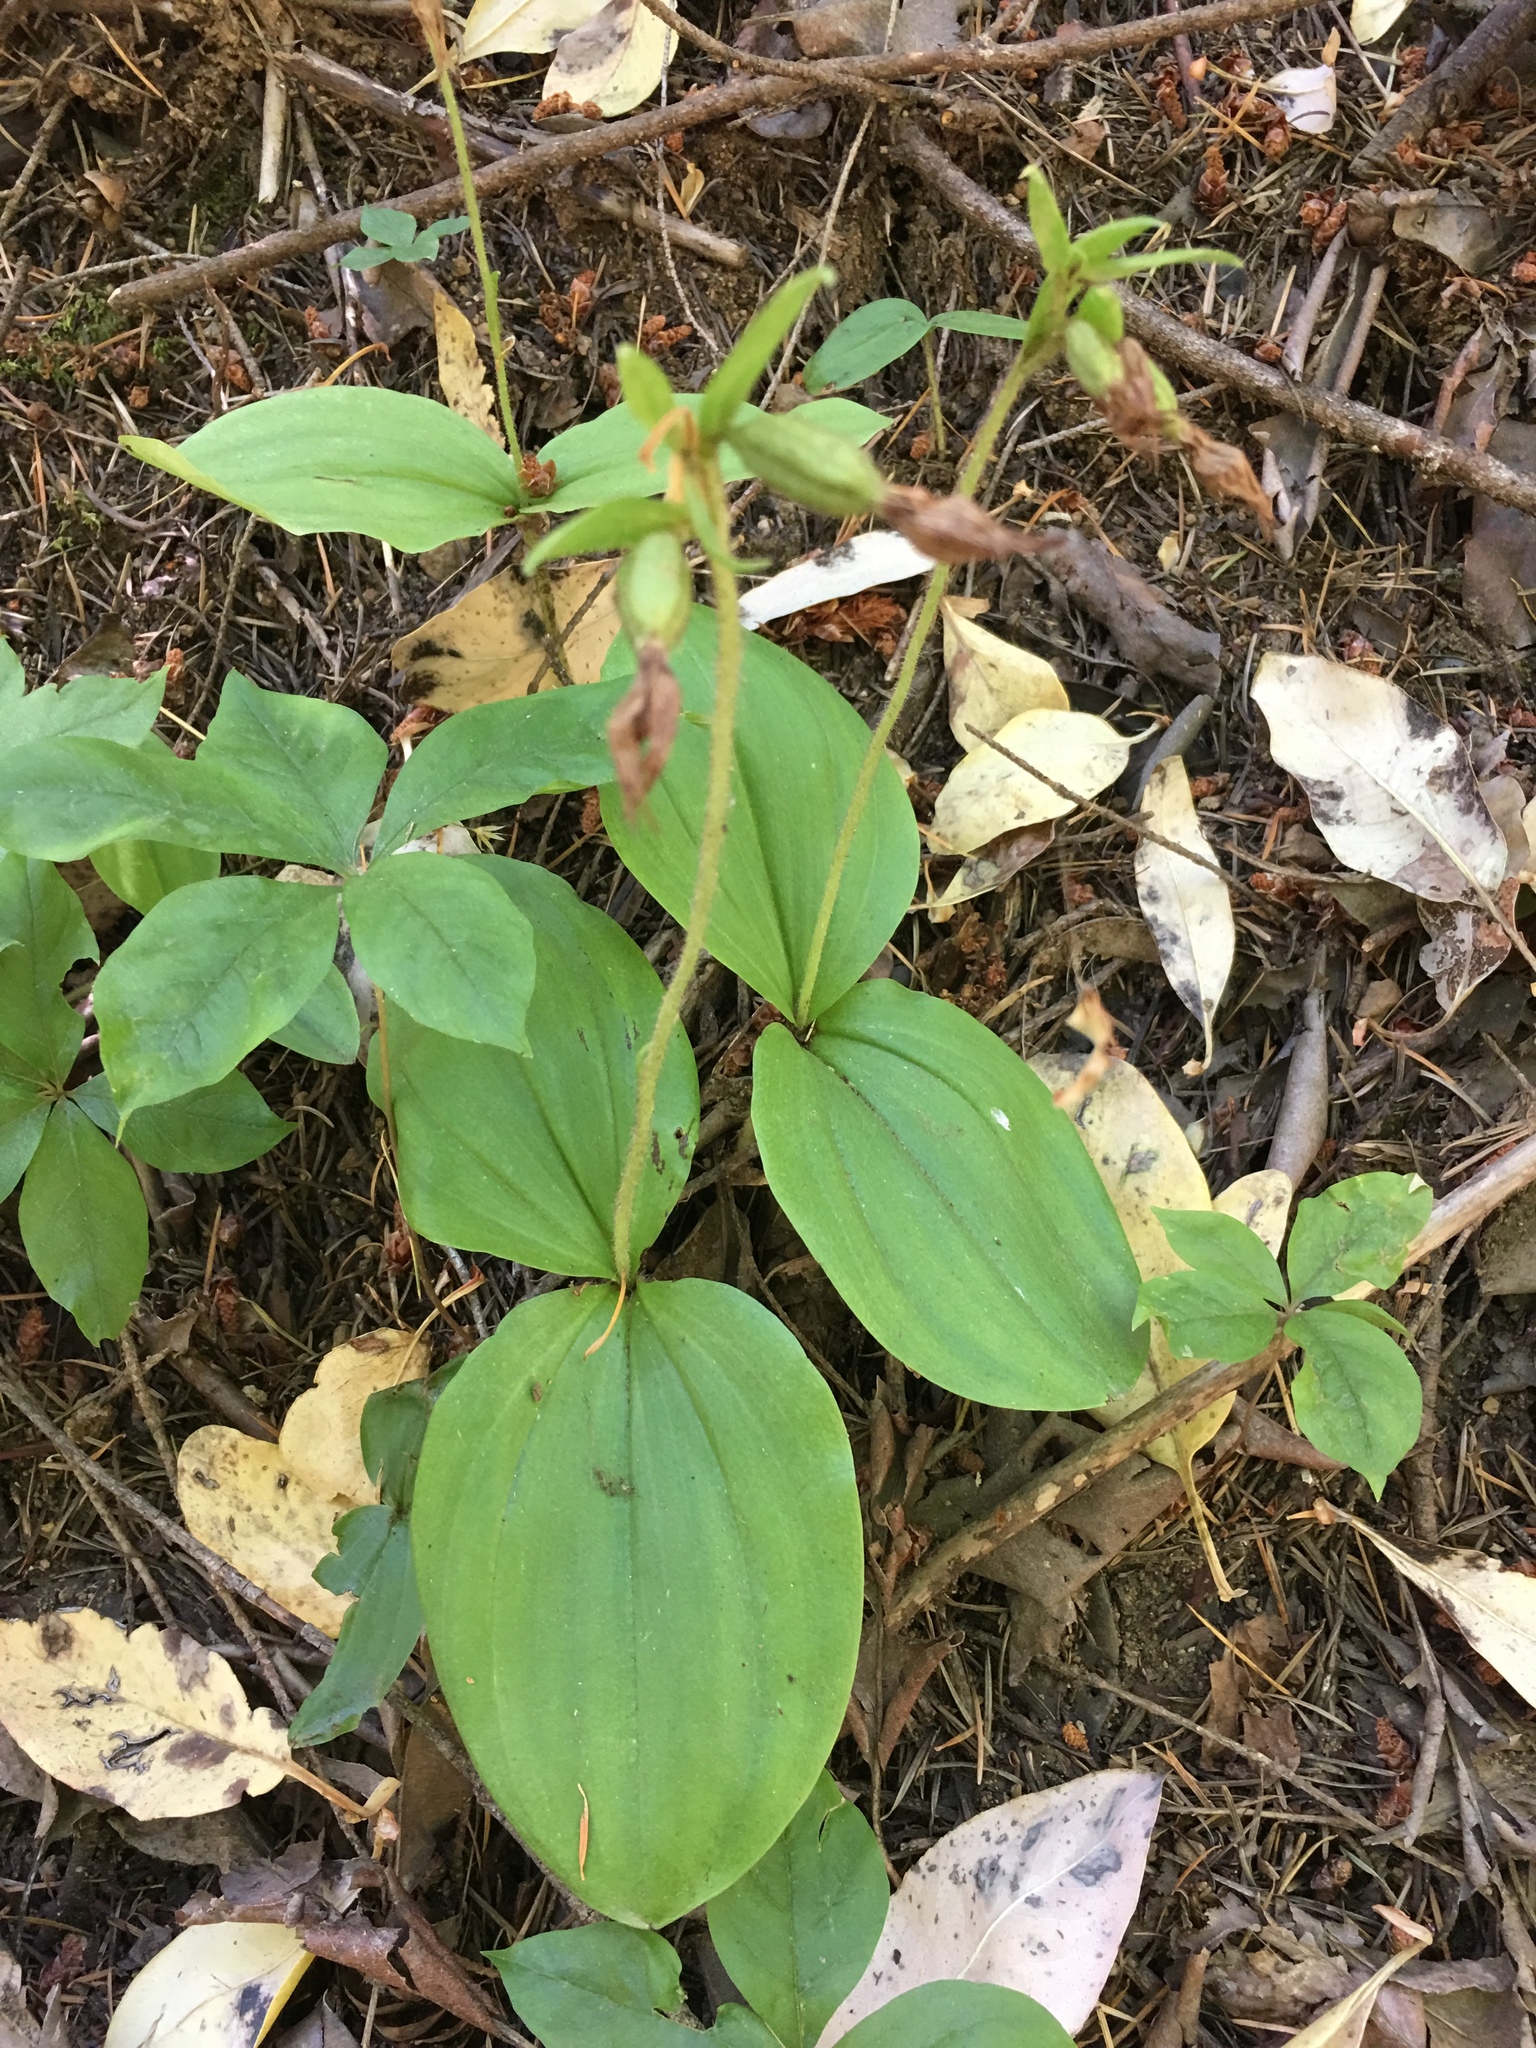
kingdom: Plantae
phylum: Tracheophyta
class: Liliopsida
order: Asparagales
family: Orchidaceae
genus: Cypripedium
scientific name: Cypripedium fasciculatum
